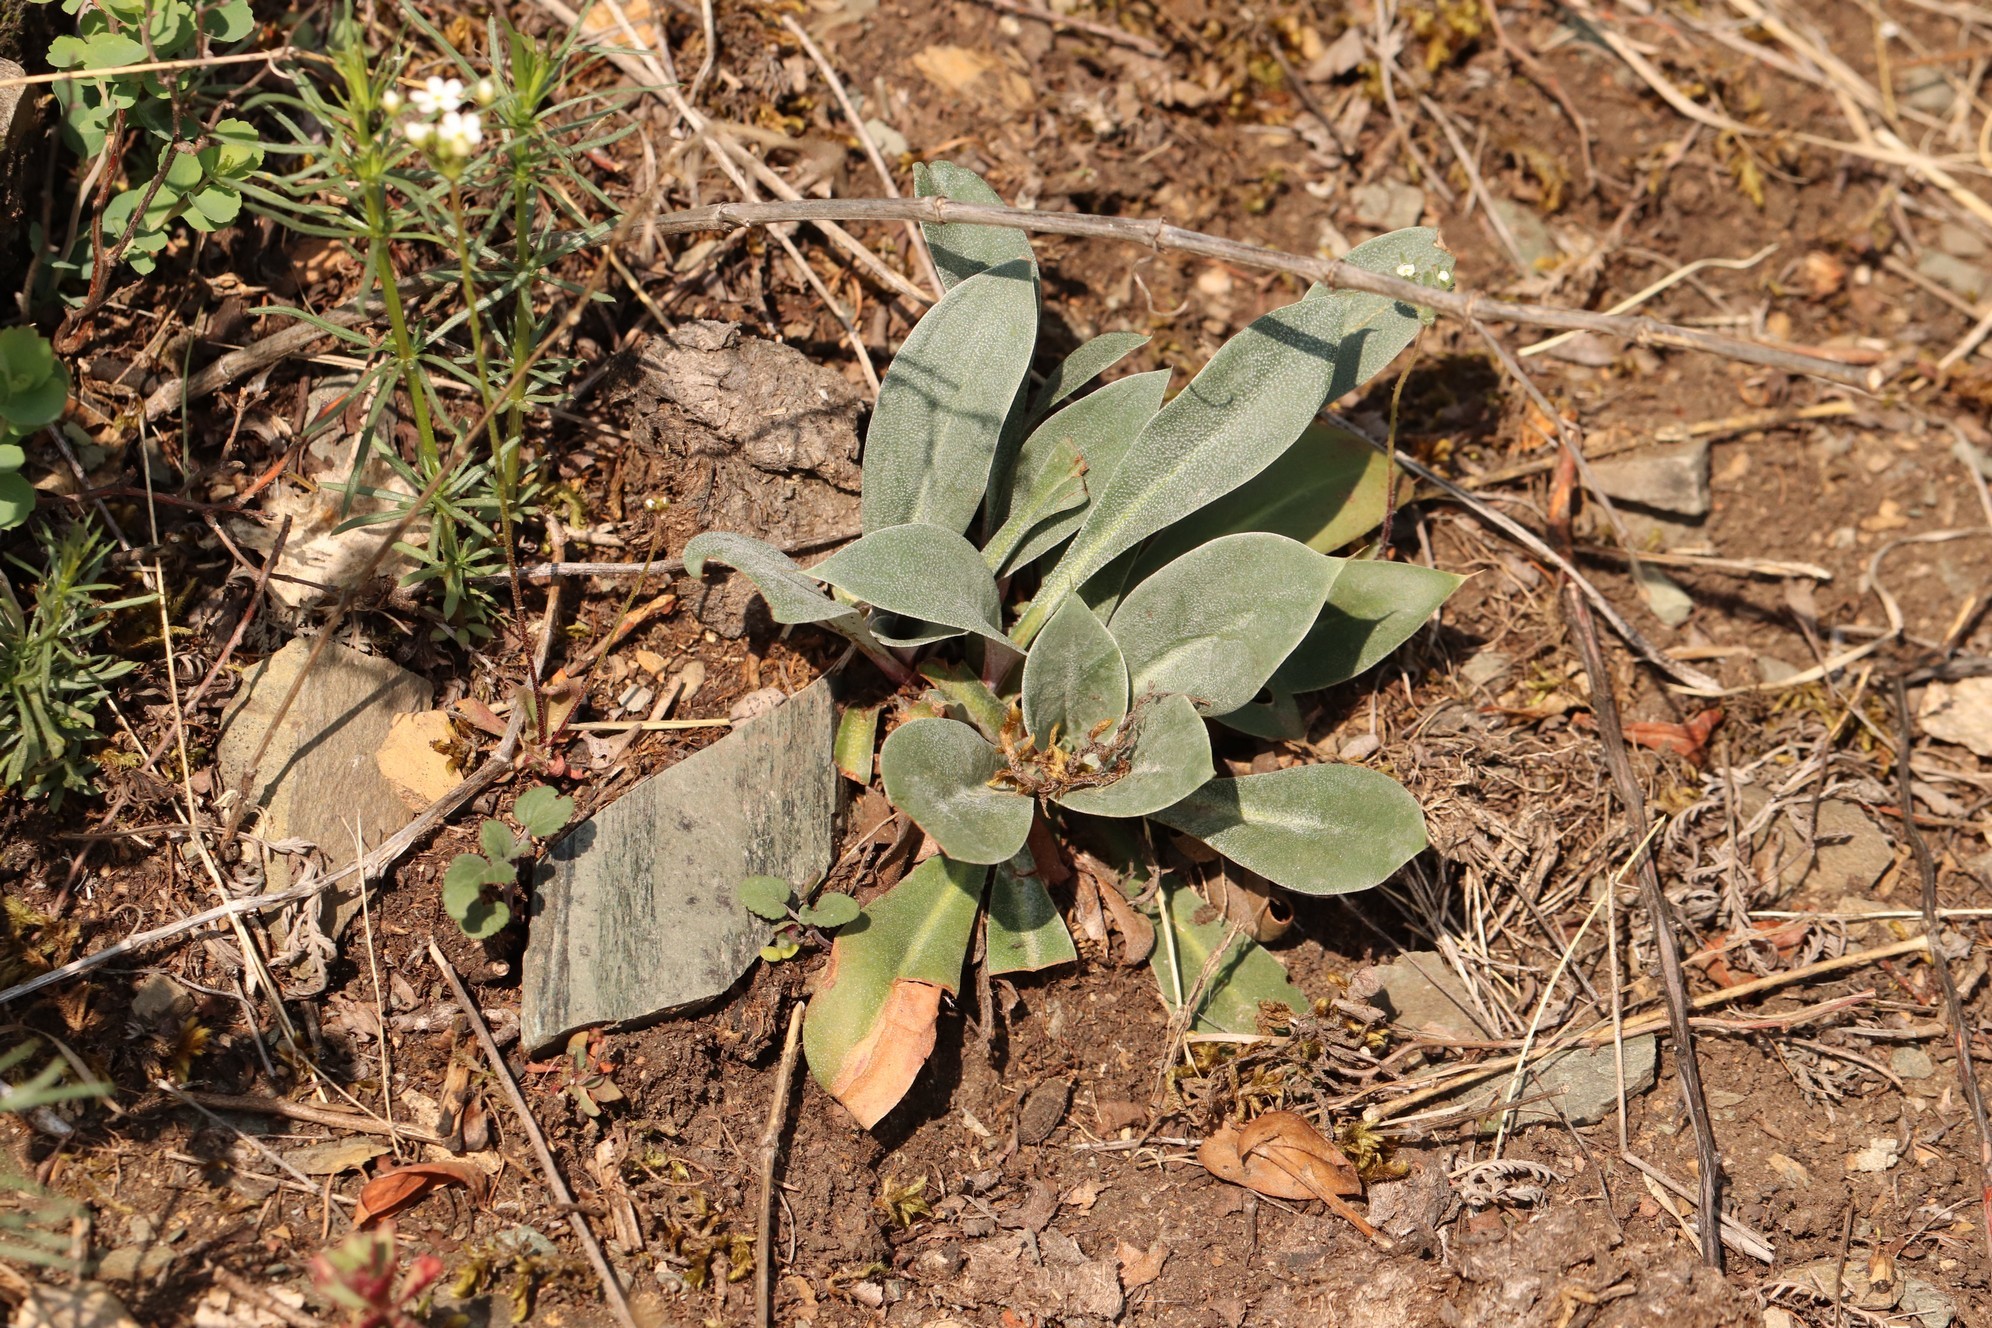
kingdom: Plantae
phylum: Tracheophyta
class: Magnoliopsida
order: Caryophyllales
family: Plumbaginaceae
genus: Goniolimon
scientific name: Goniolimon speciosum
